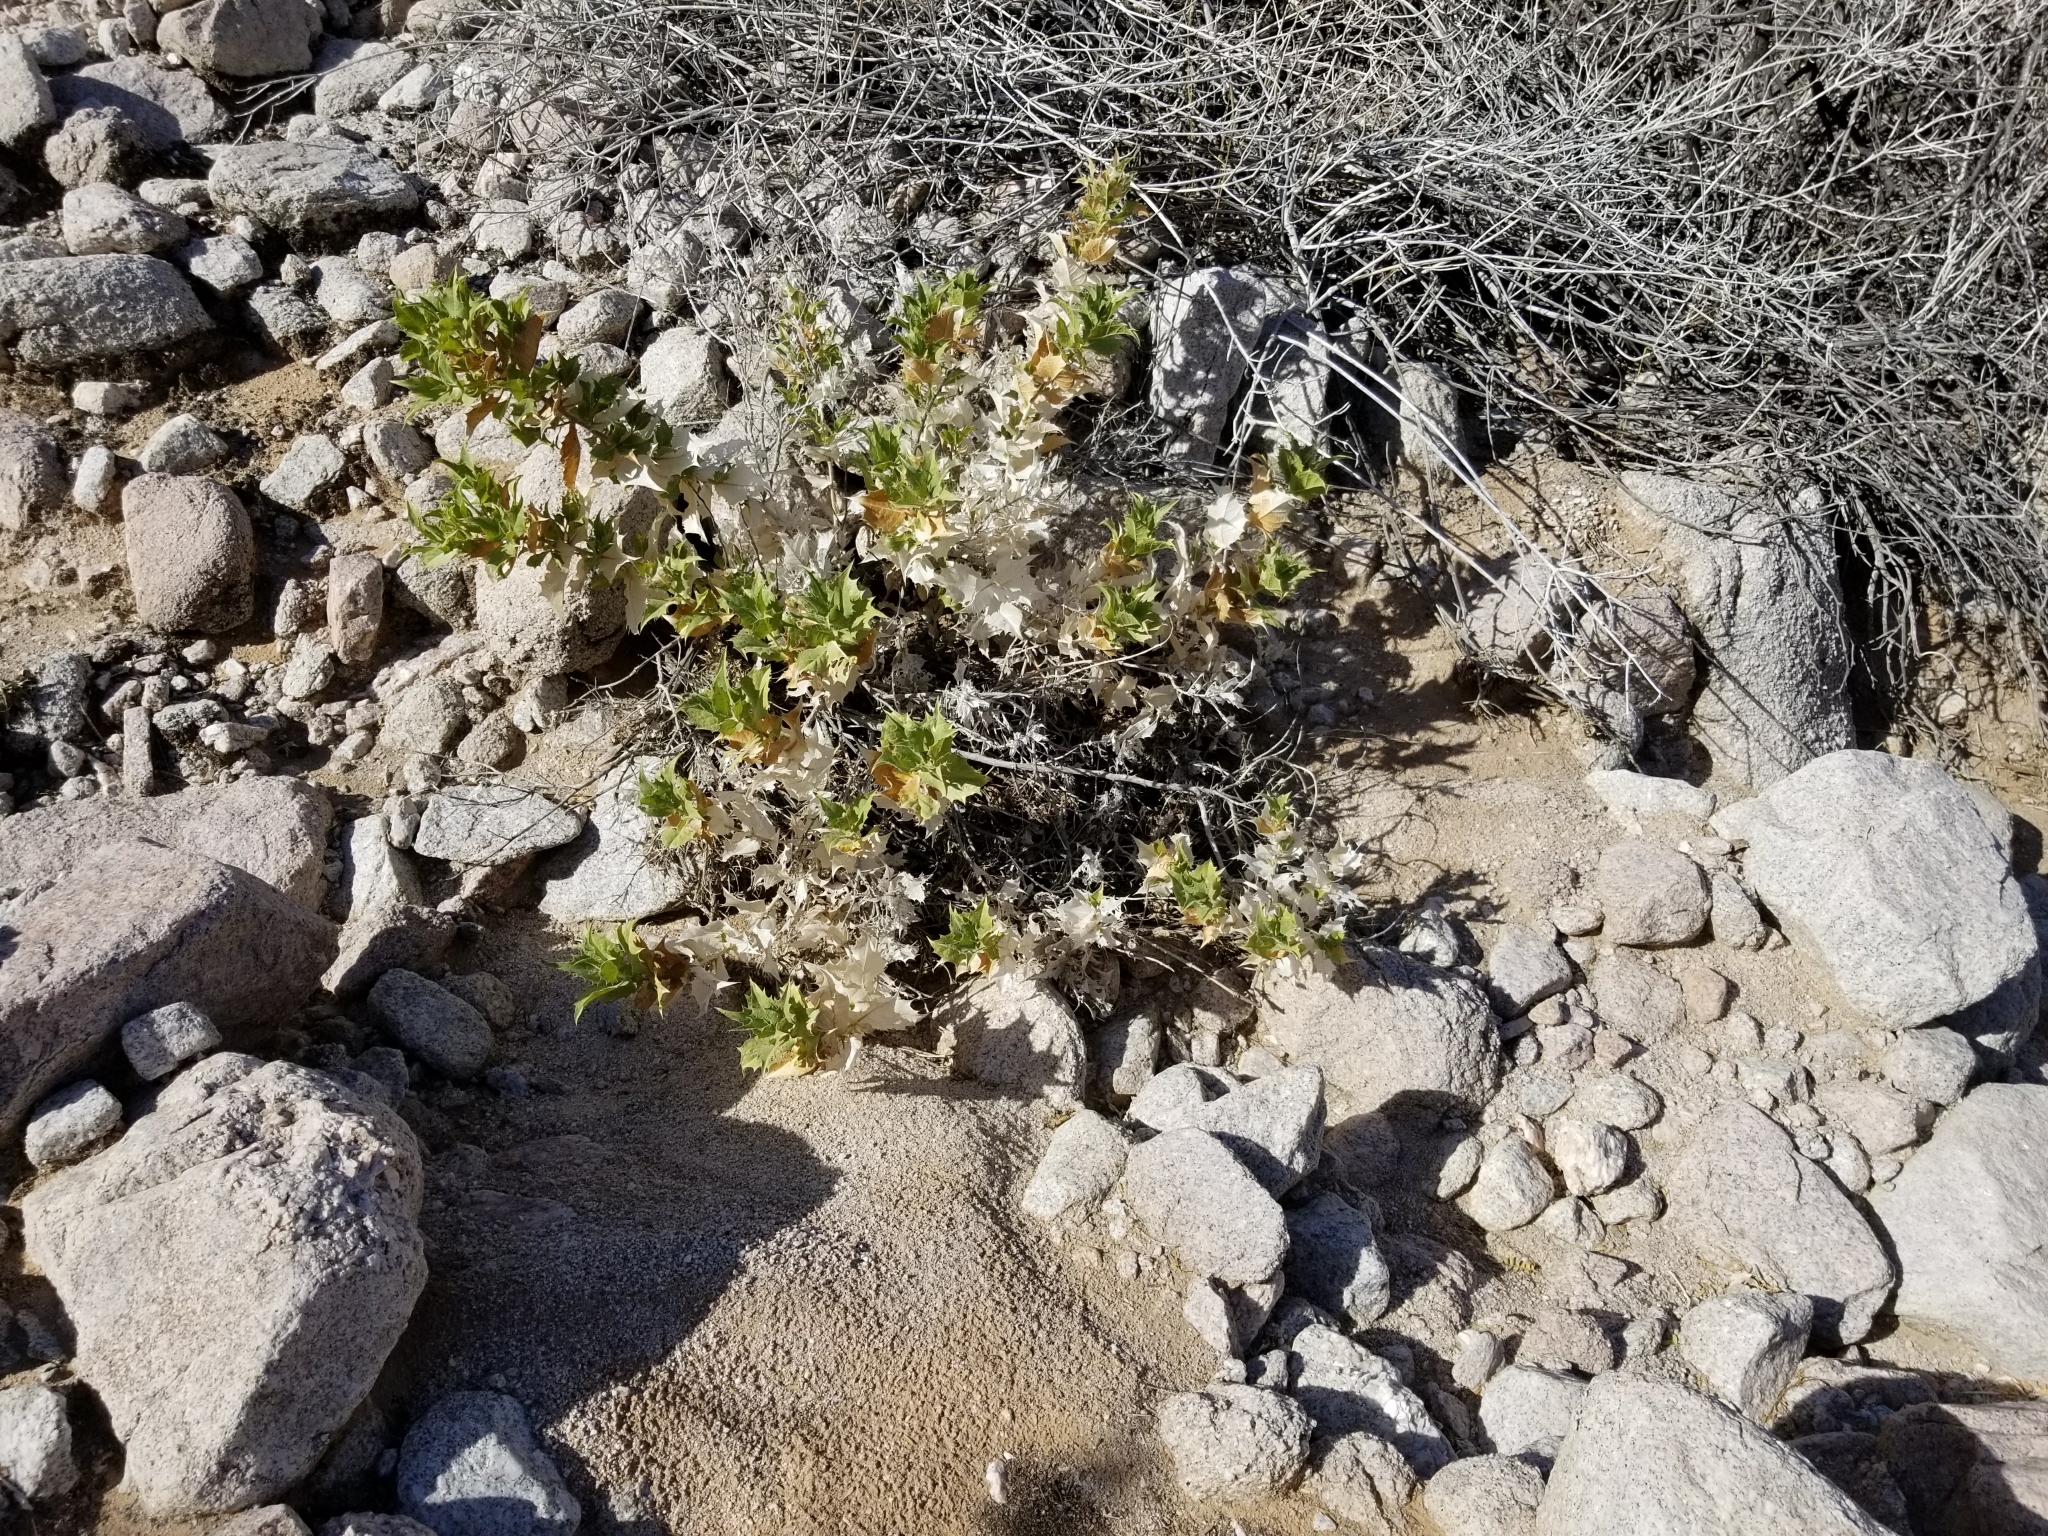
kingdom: Plantae
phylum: Tracheophyta
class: Magnoliopsida
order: Asterales
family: Asteraceae
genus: Ambrosia
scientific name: Ambrosia ilicifolia
